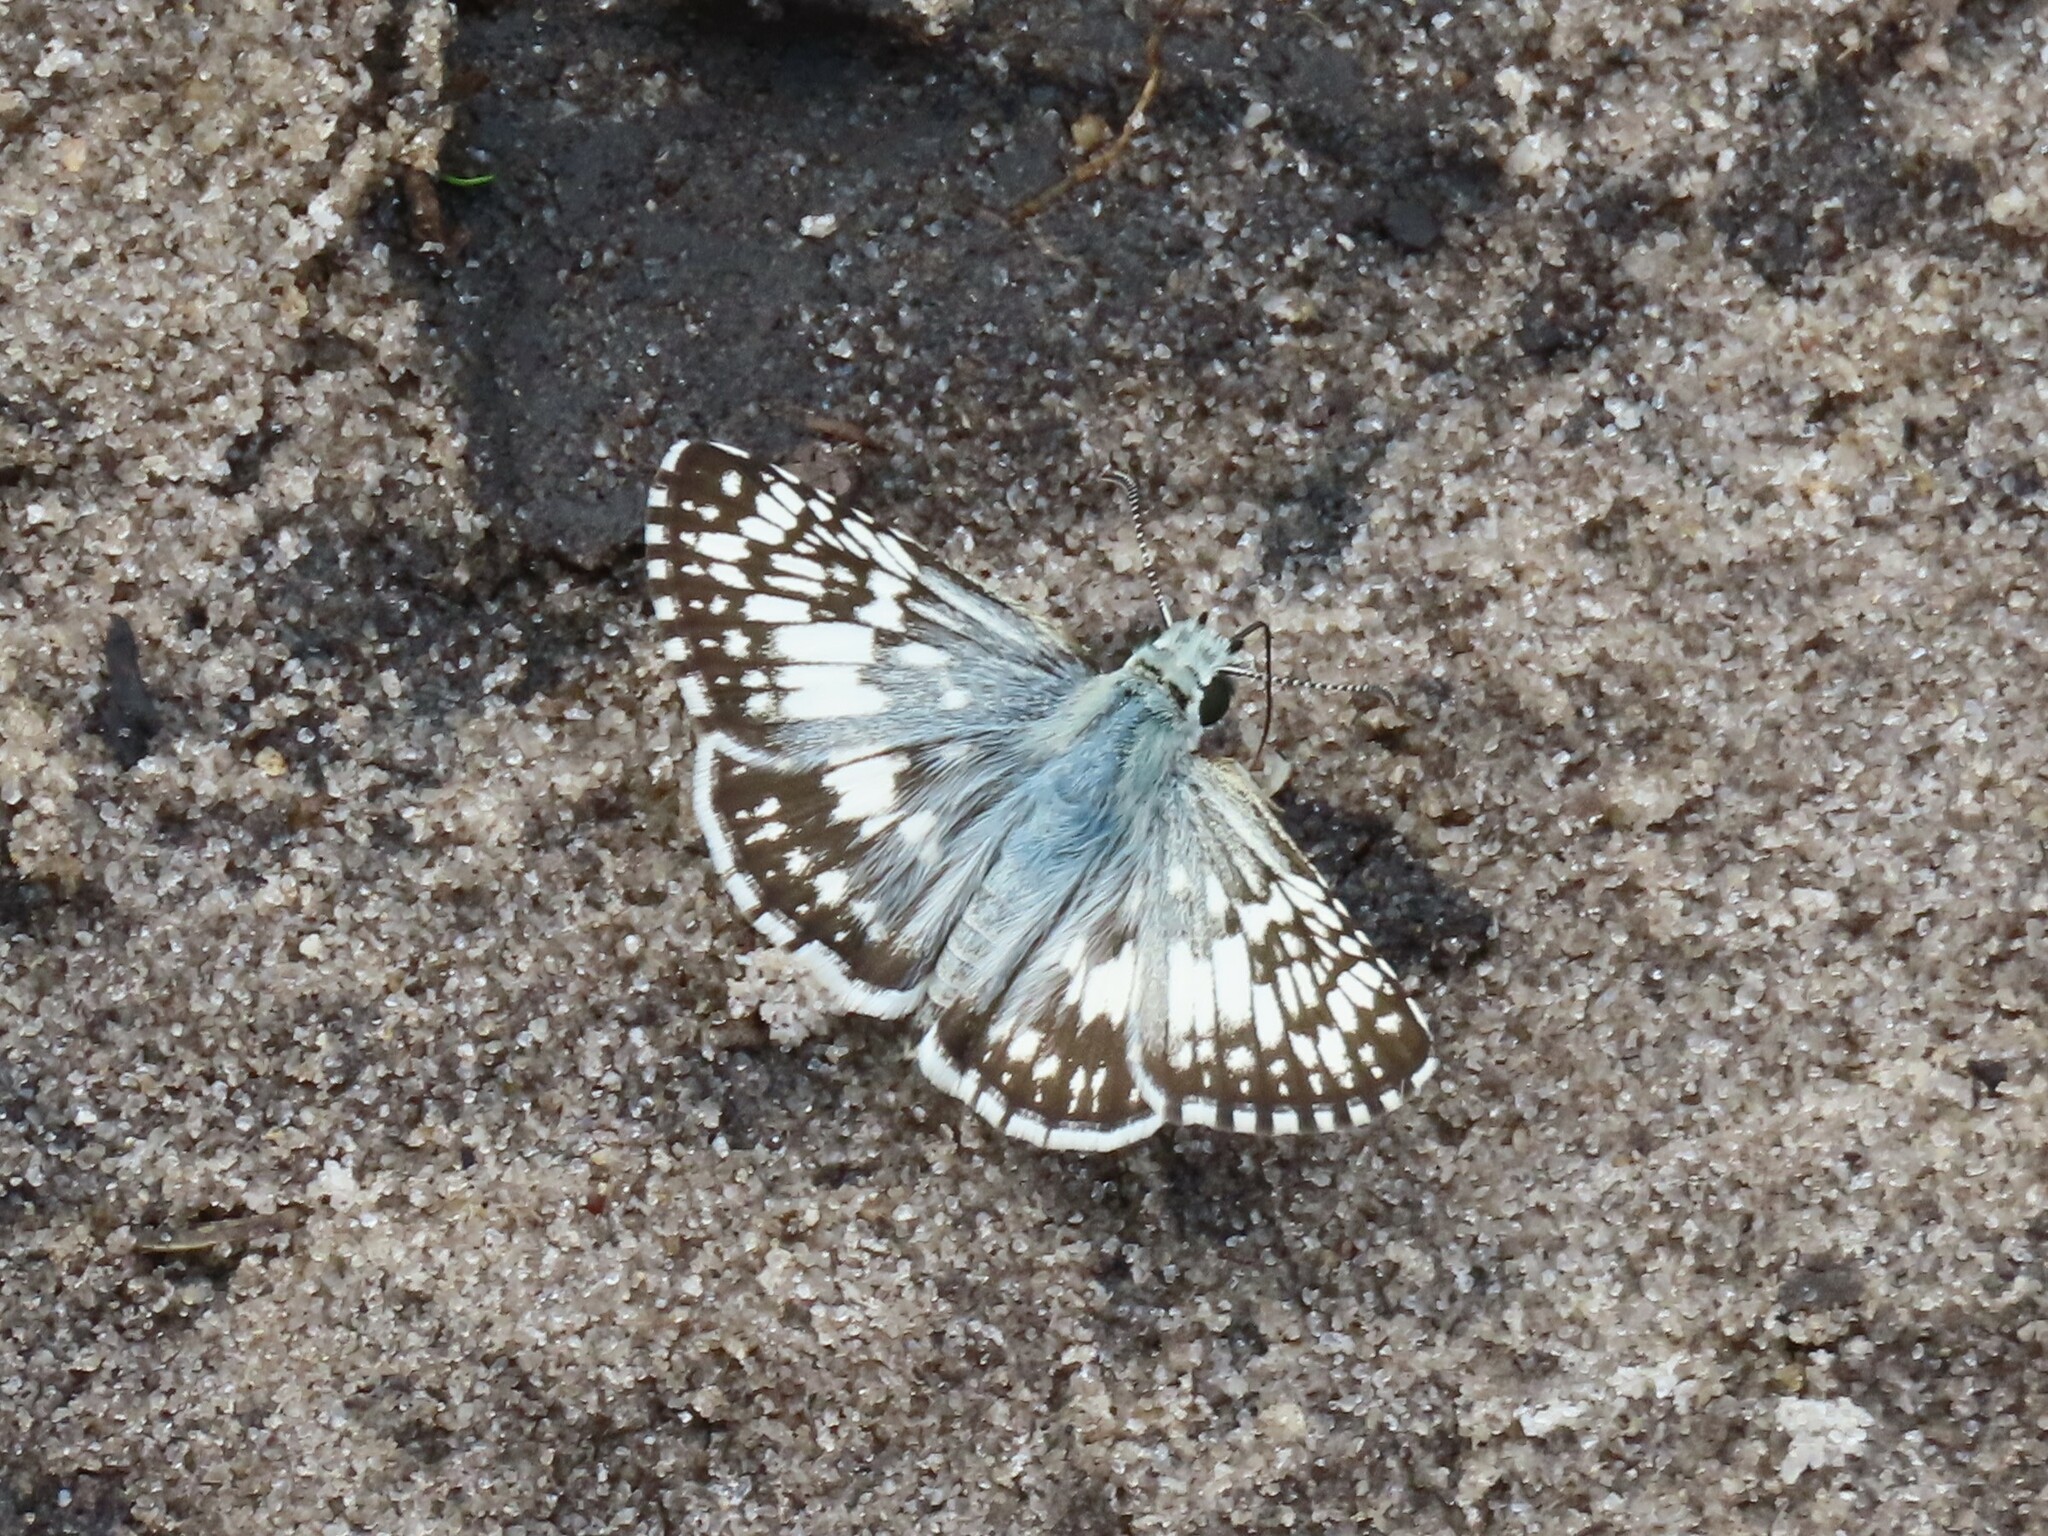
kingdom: Animalia
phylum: Arthropoda
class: Insecta
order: Lepidoptera
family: Hesperiidae
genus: Burnsius
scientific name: Burnsius albezens
